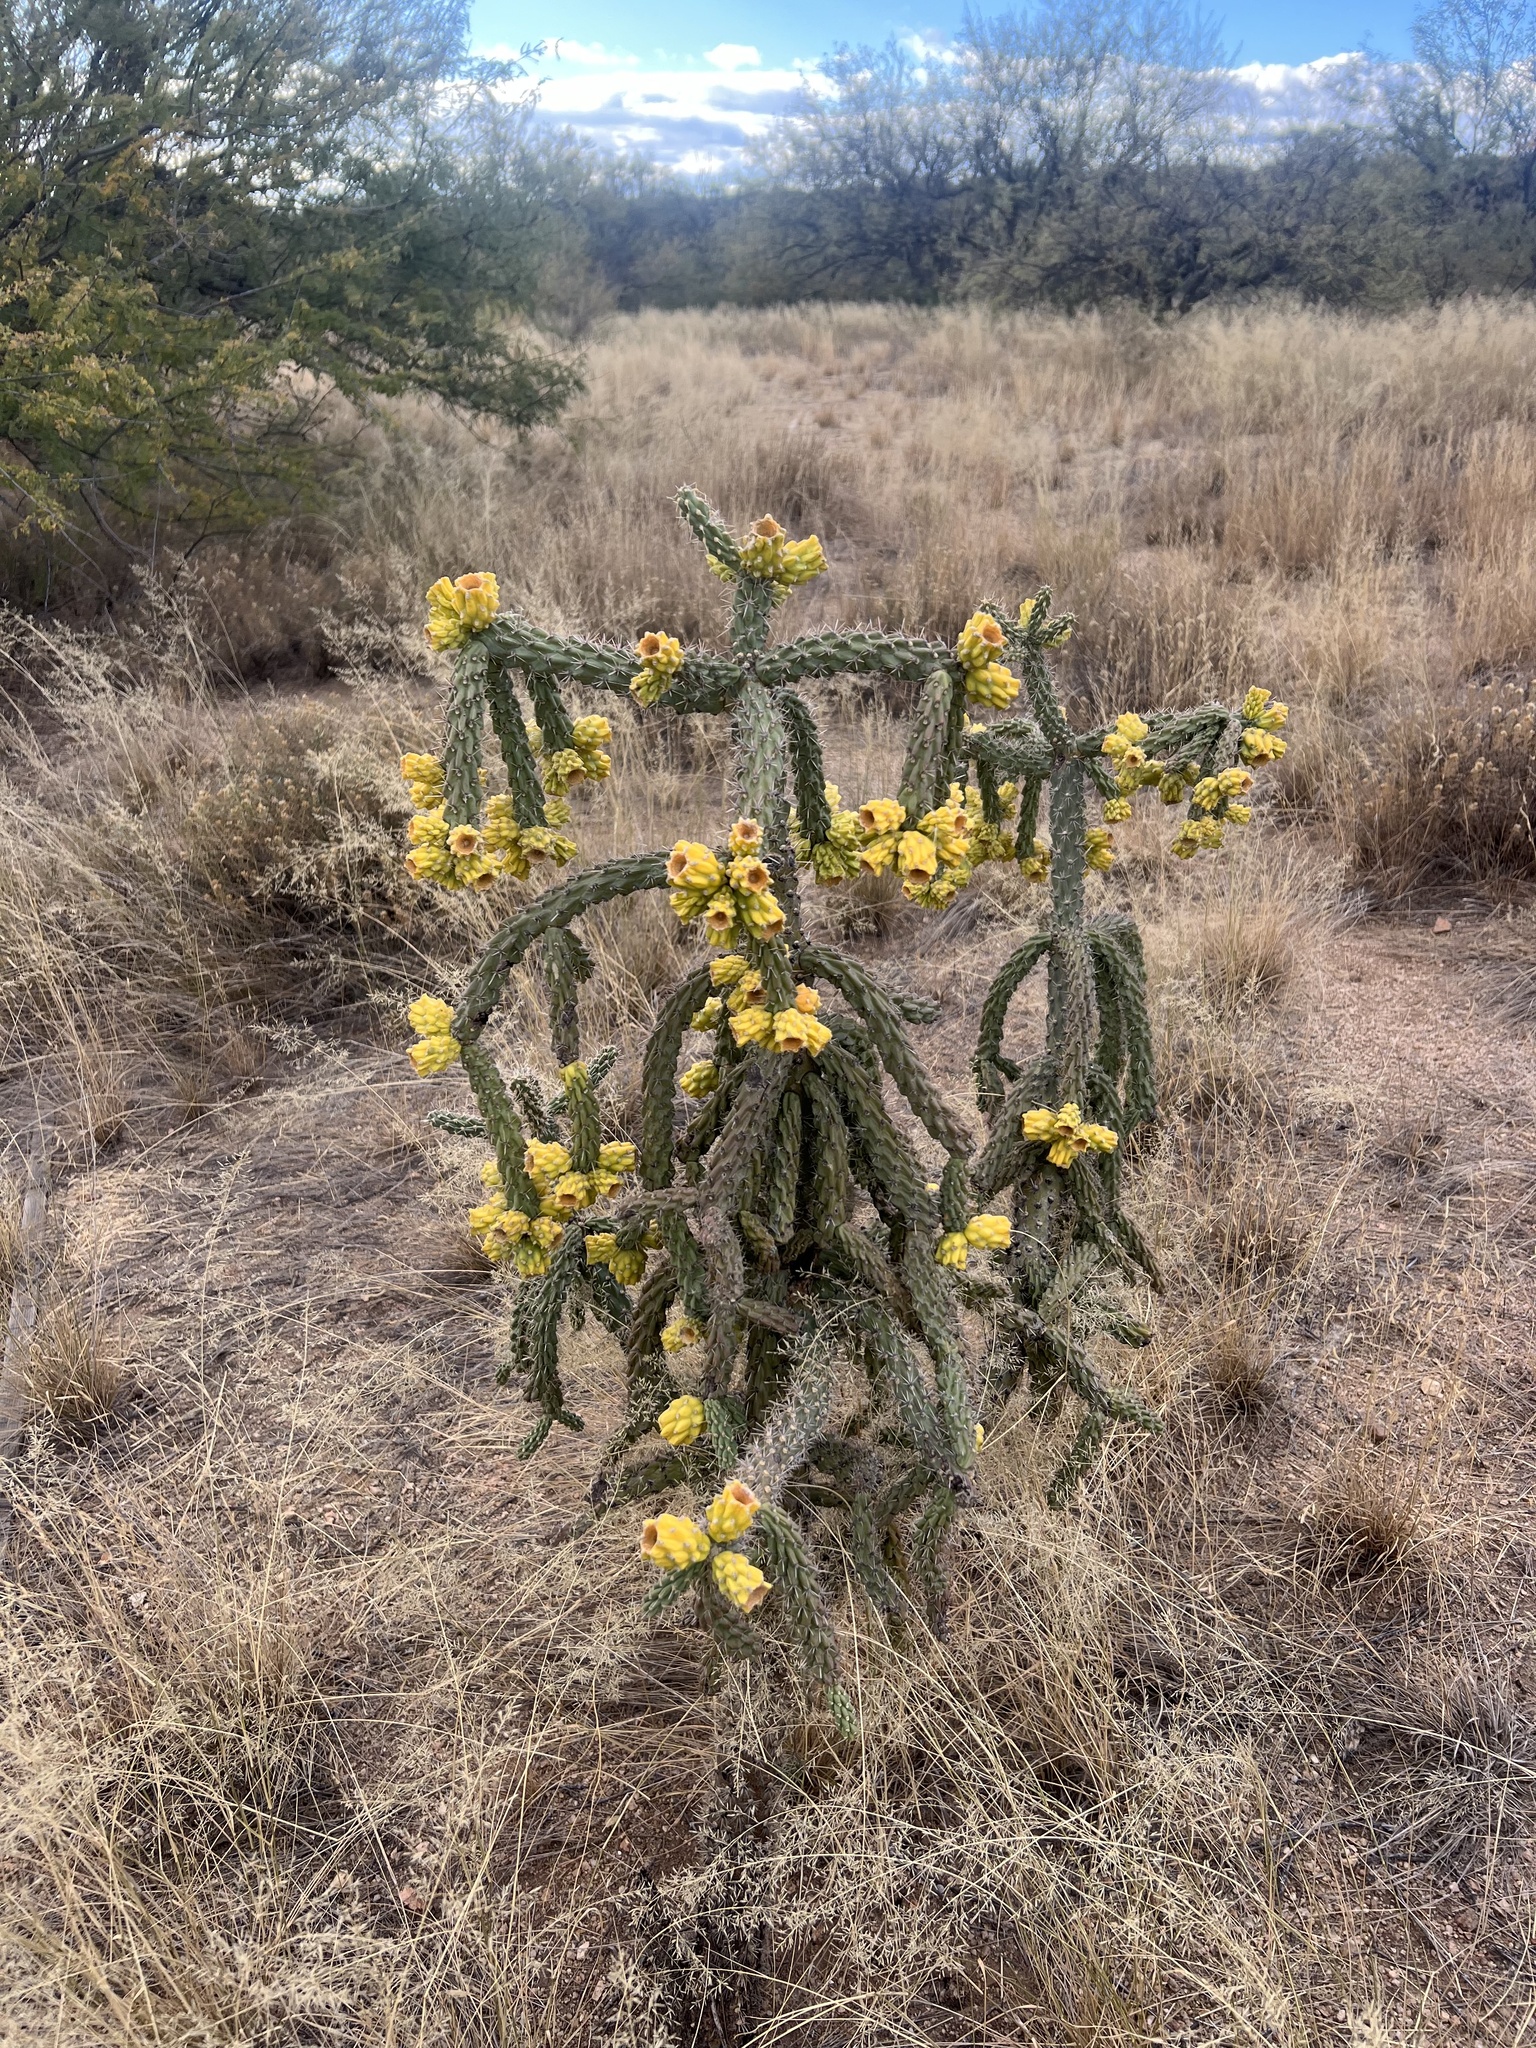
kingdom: Plantae
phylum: Tracheophyta
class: Magnoliopsida
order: Caryophyllales
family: Cactaceae
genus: Cylindropuntia
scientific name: Cylindropuntia imbricata
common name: Candelabrum cactus
